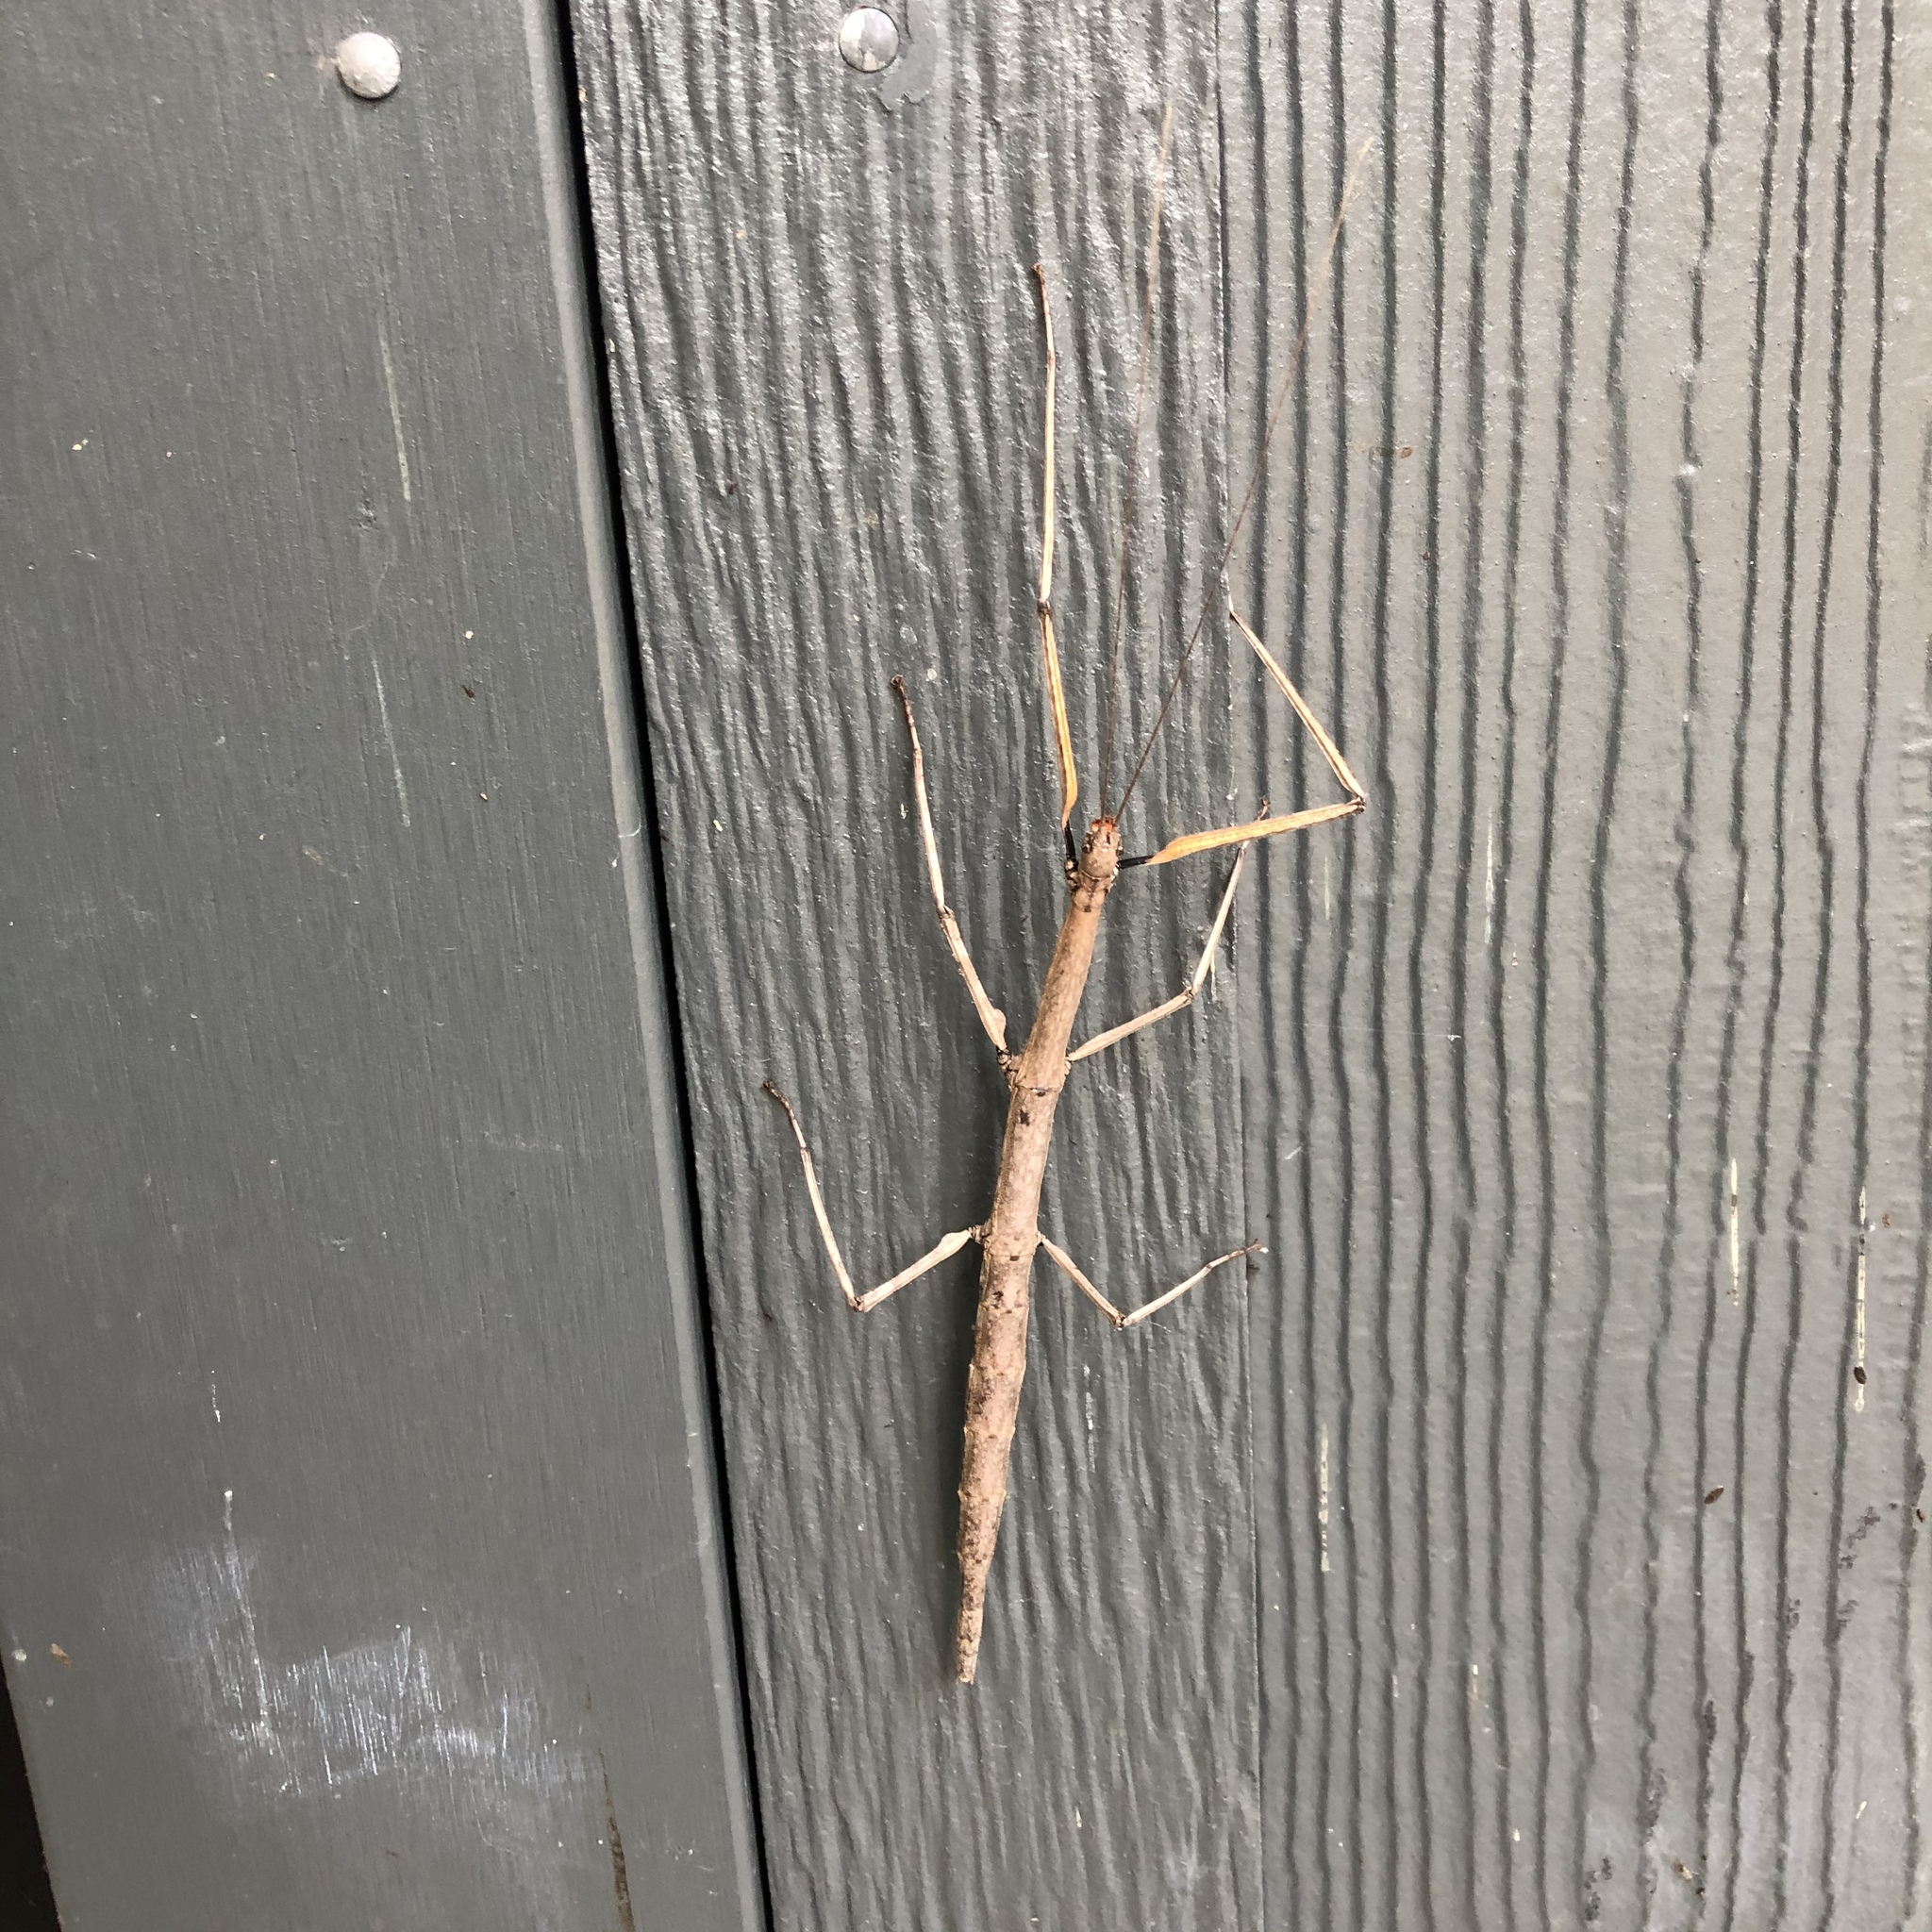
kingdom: Animalia
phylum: Arthropoda
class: Insecta
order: Phasmida
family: Diapheromeridae
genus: Diapheromera
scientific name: Diapheromera femorata
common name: Common american walkingstick
